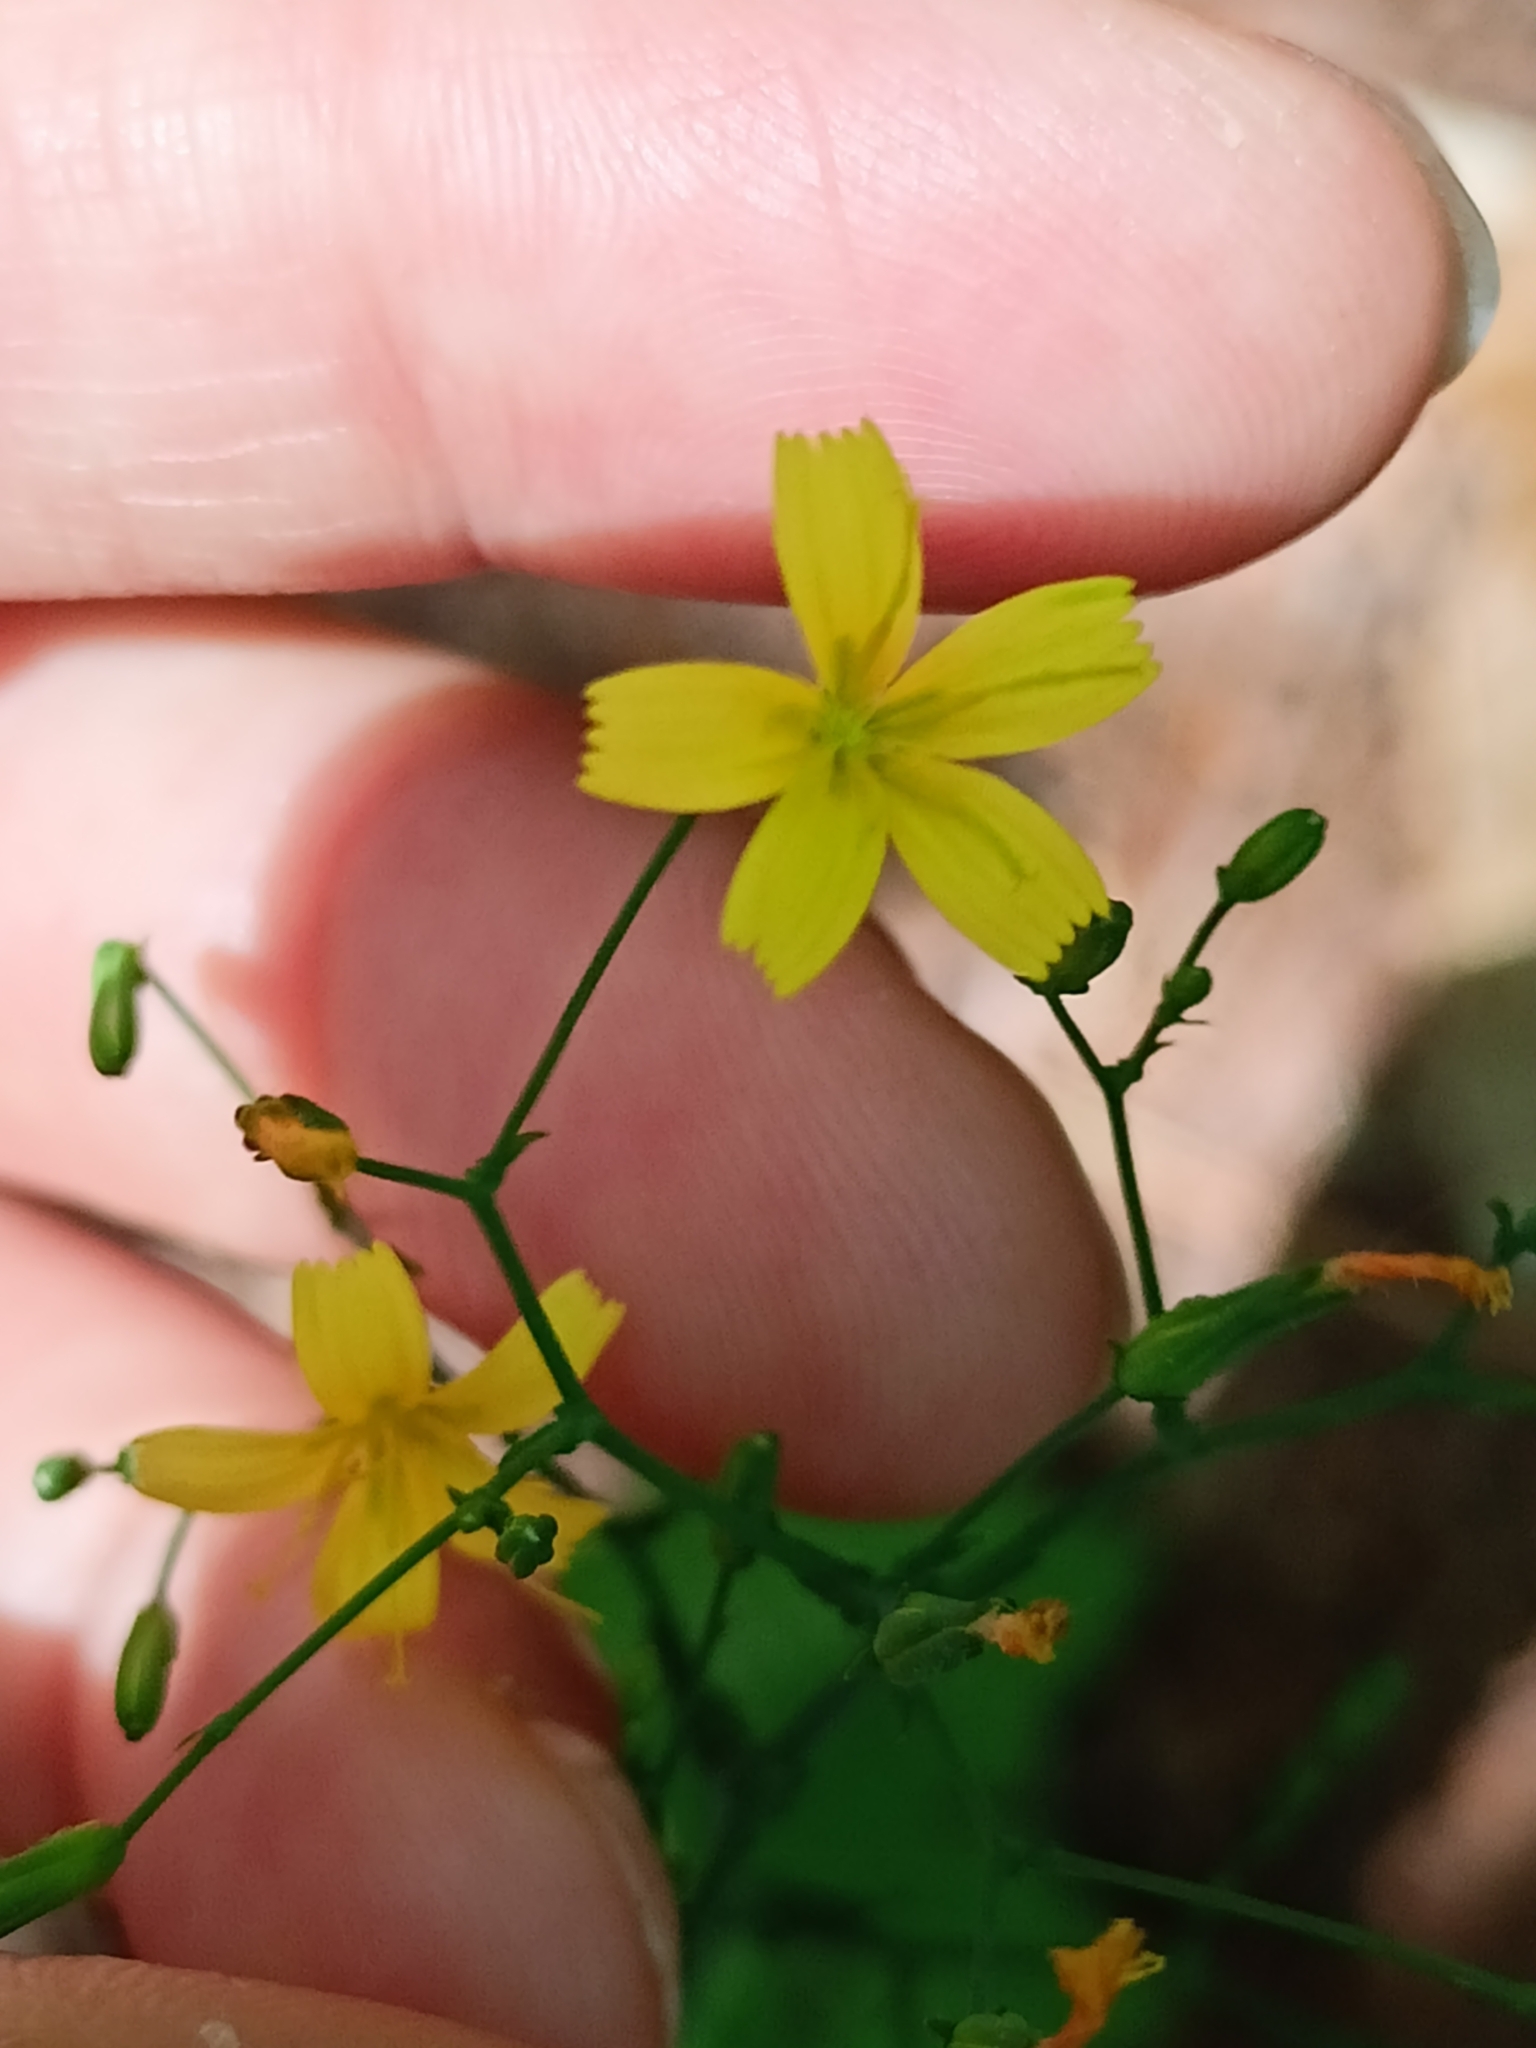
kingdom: Plantae
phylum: Tracheophyta
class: Magnoliopsida
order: Asterales
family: Asteraceae
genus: Mycelis
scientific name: Mycelis muralis
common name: Wall lettuce
